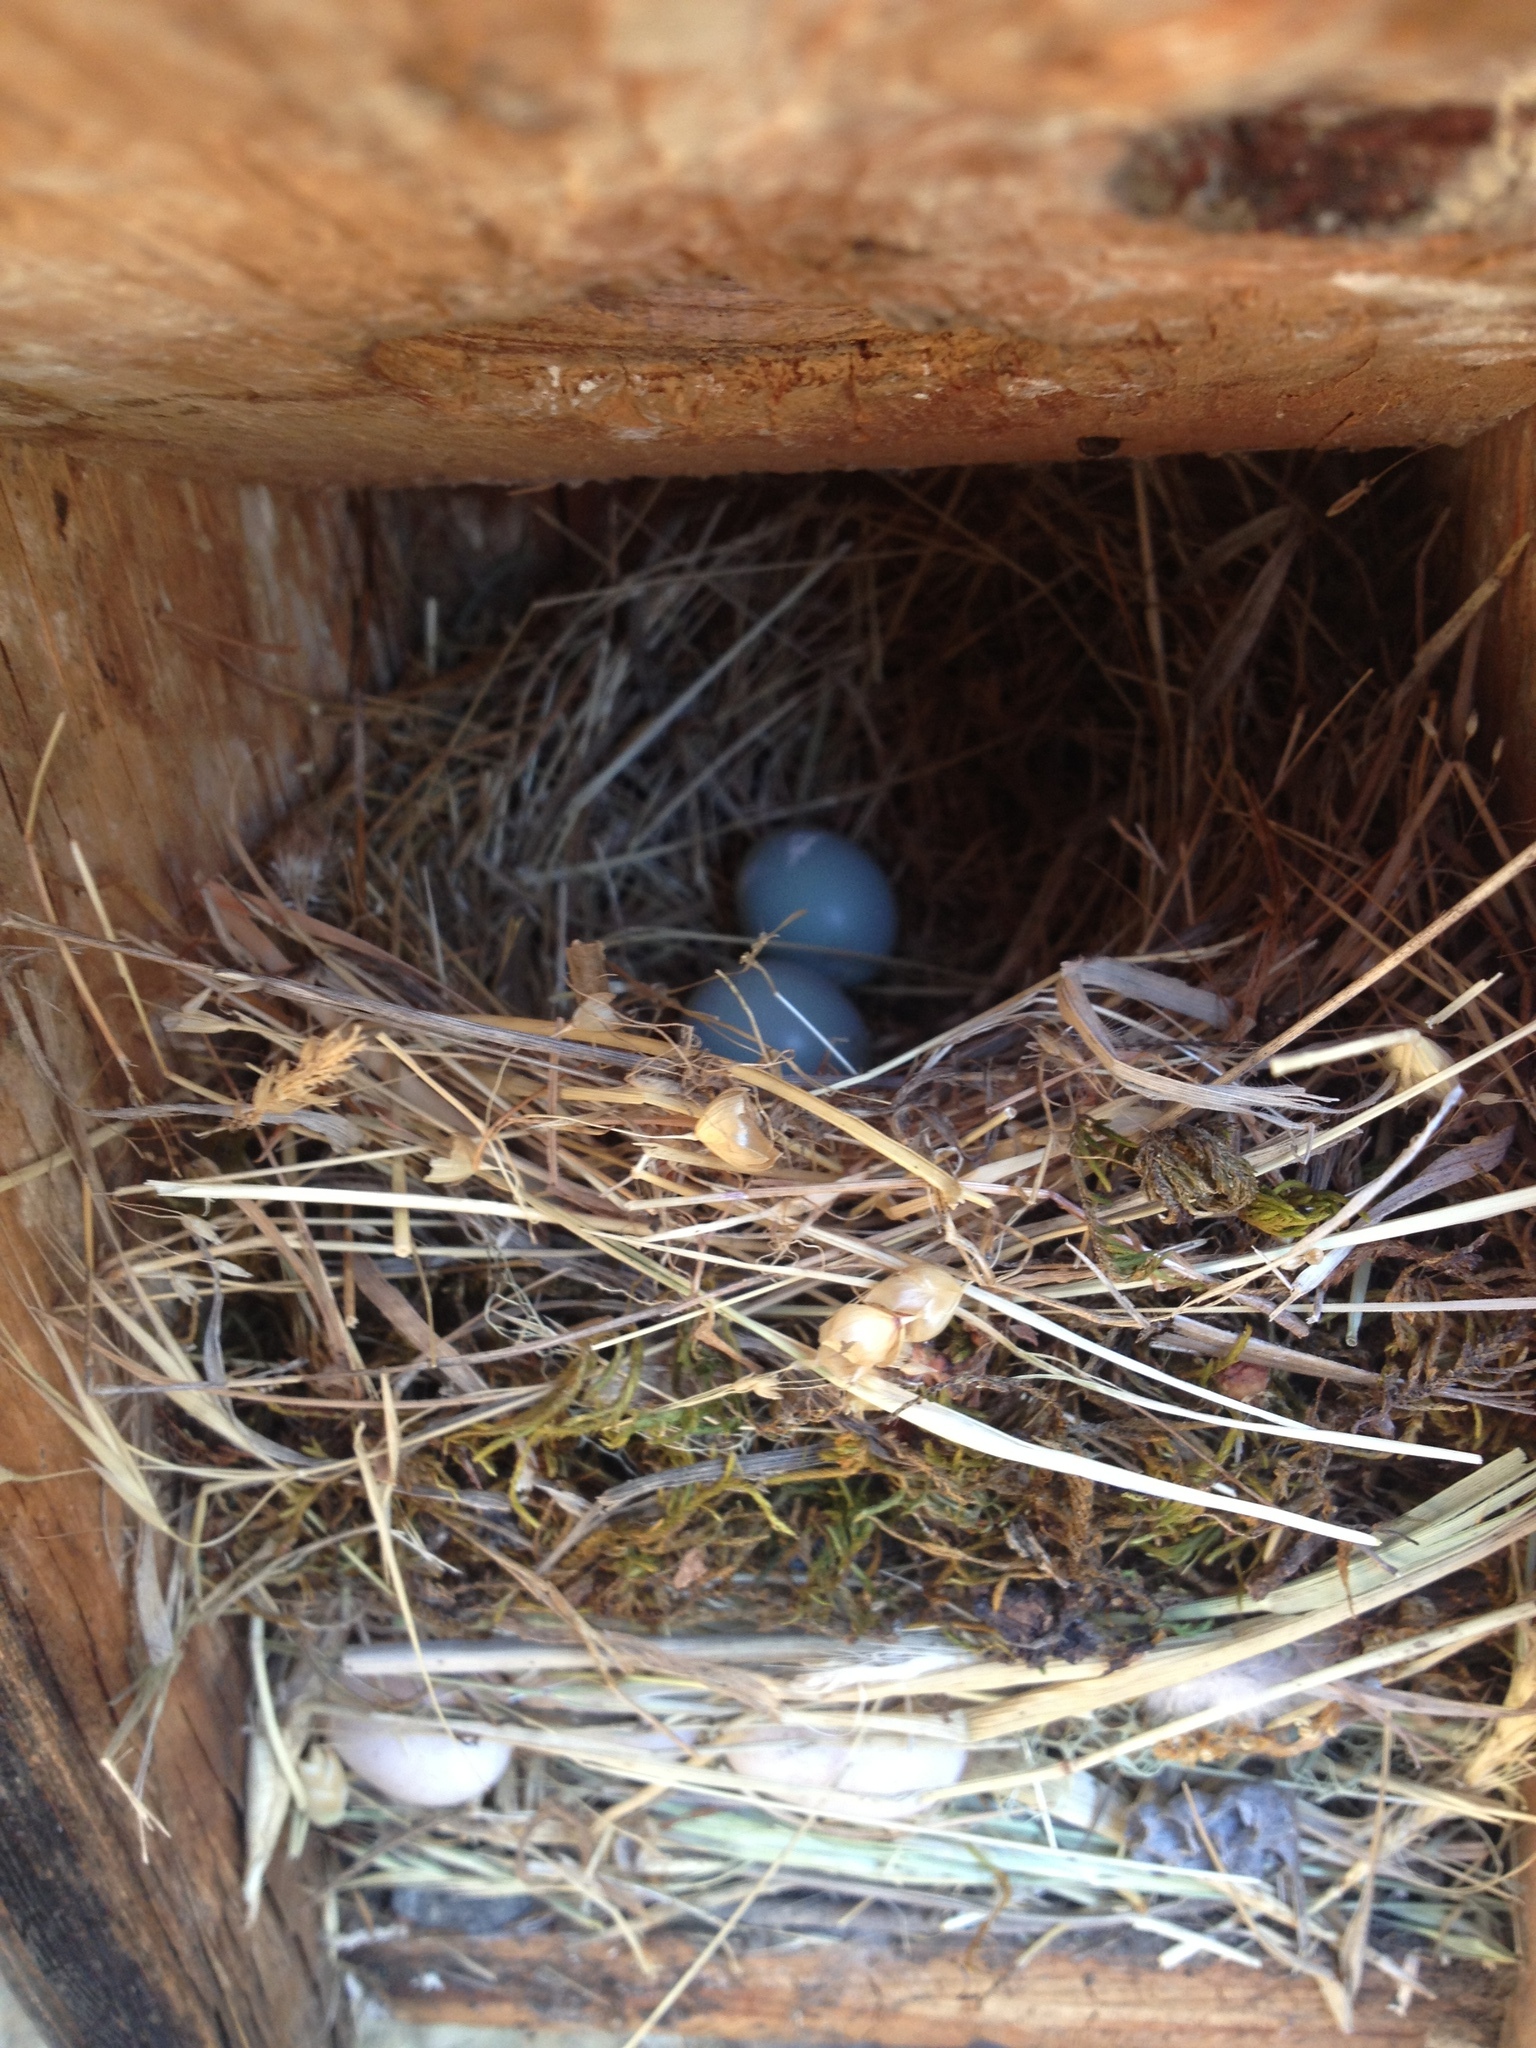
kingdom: Animalia
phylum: Chordata
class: Aves
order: Passeriformes
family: Turdidae
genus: Sialia
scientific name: Sialia mexicana
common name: Western bluebird
